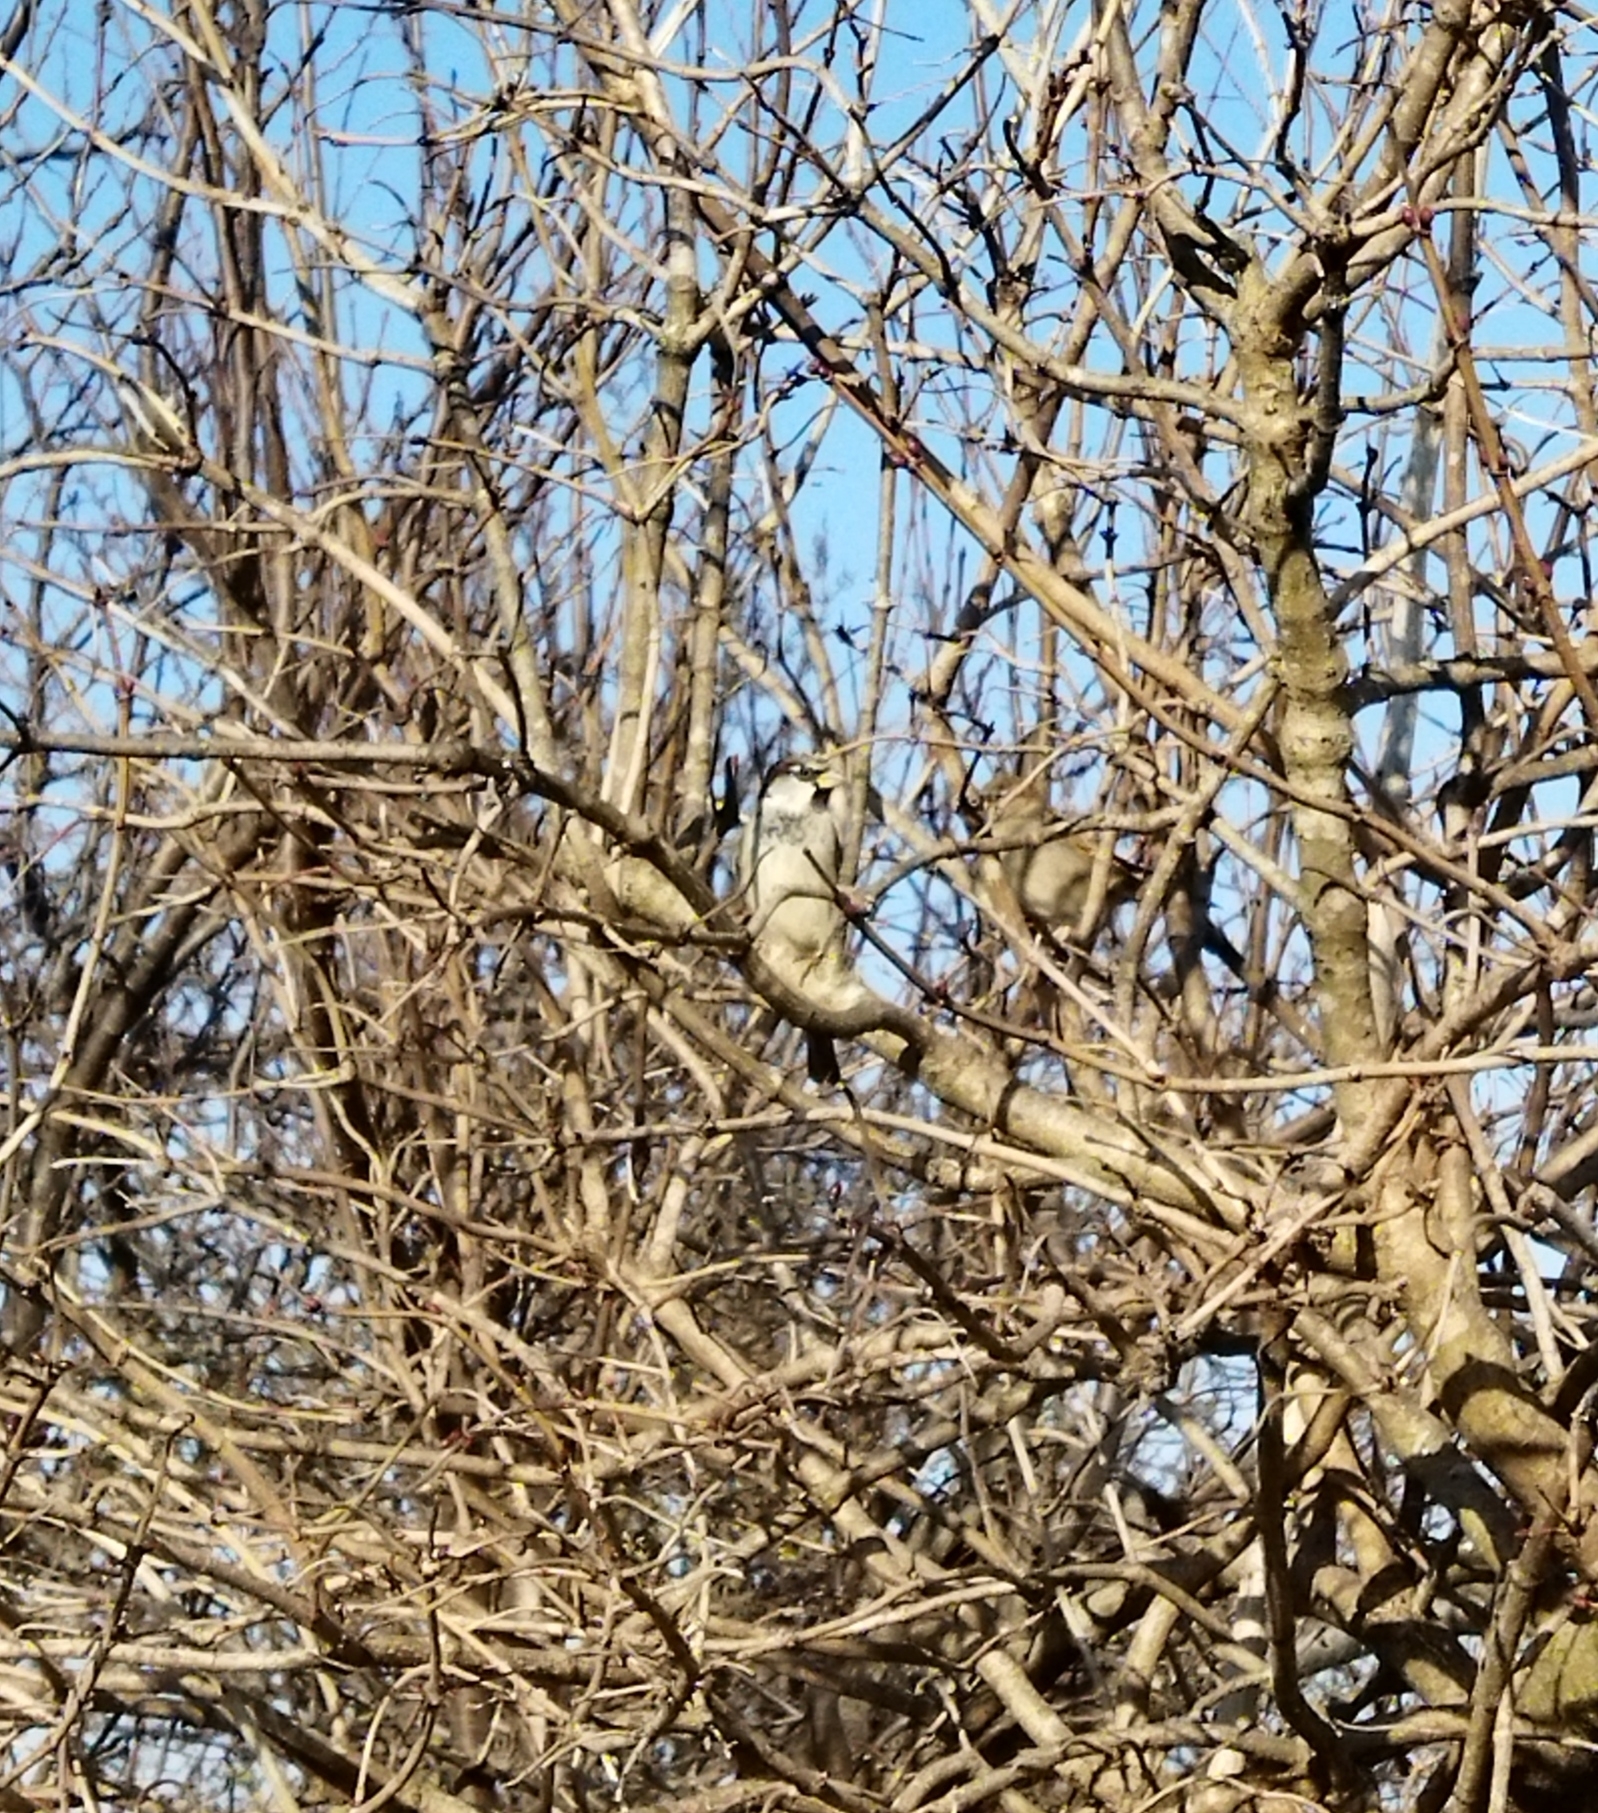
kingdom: Animalia
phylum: Chordata
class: Aves
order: Passeriformes
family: Passeridae
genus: Passer
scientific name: Passer domesticus
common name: House sparrow
